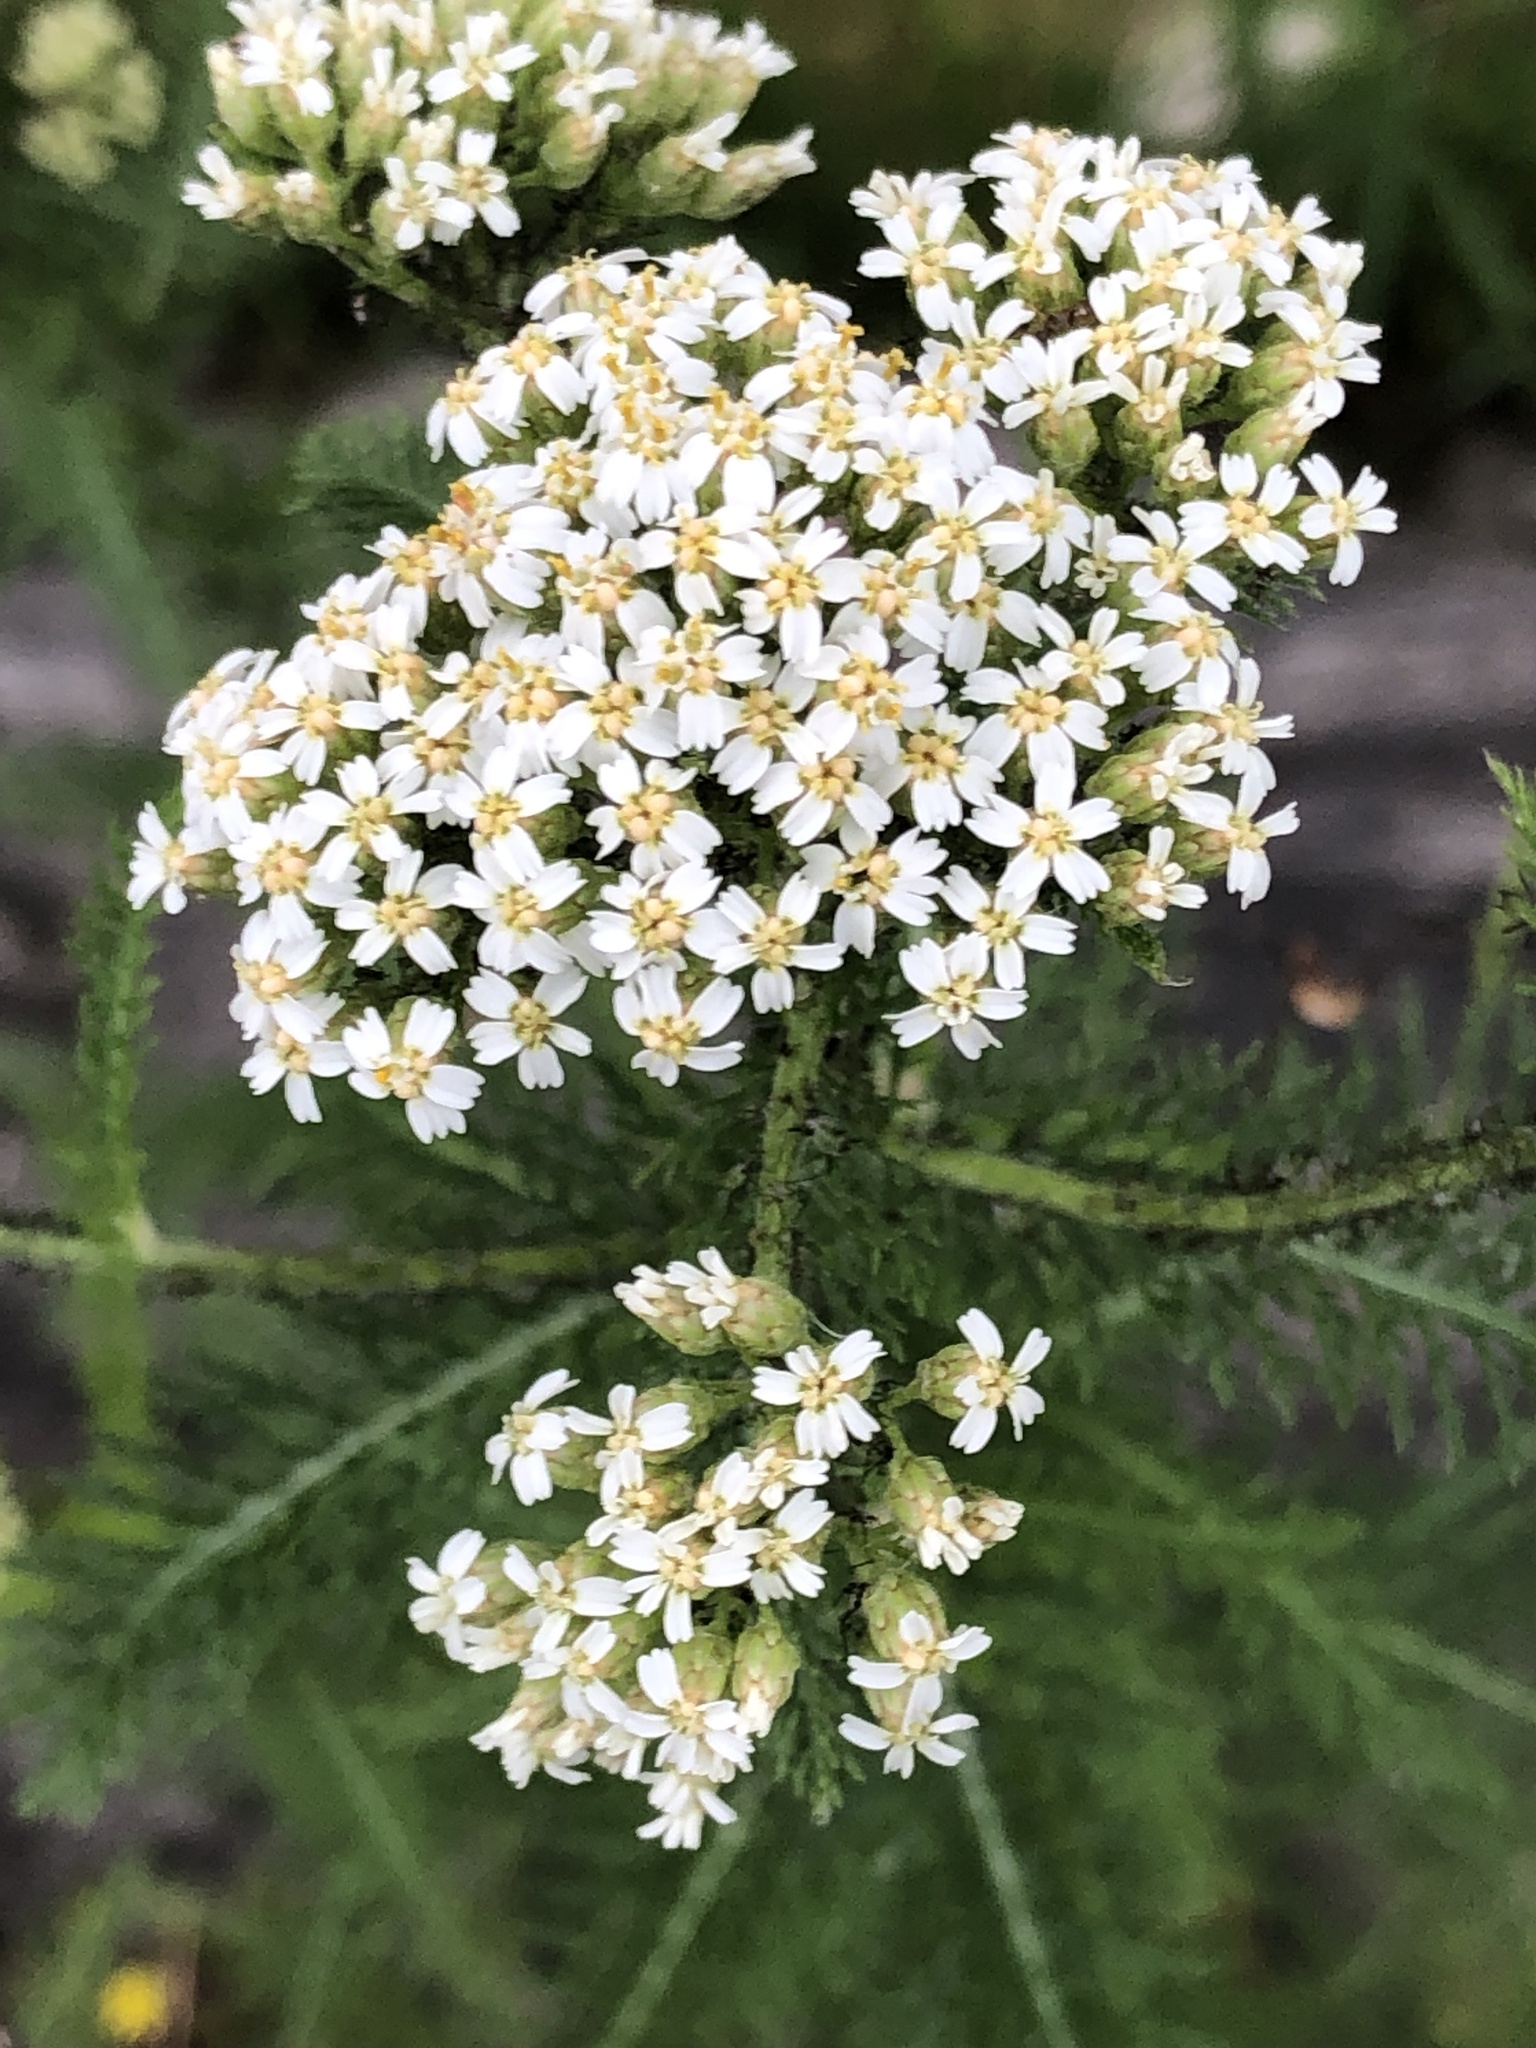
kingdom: Plantae
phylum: Tracheophyta
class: Magnoliopsida
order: Asterales
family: Asteraceae
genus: Achillea
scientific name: Achillea millefolium
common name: Yarrow
